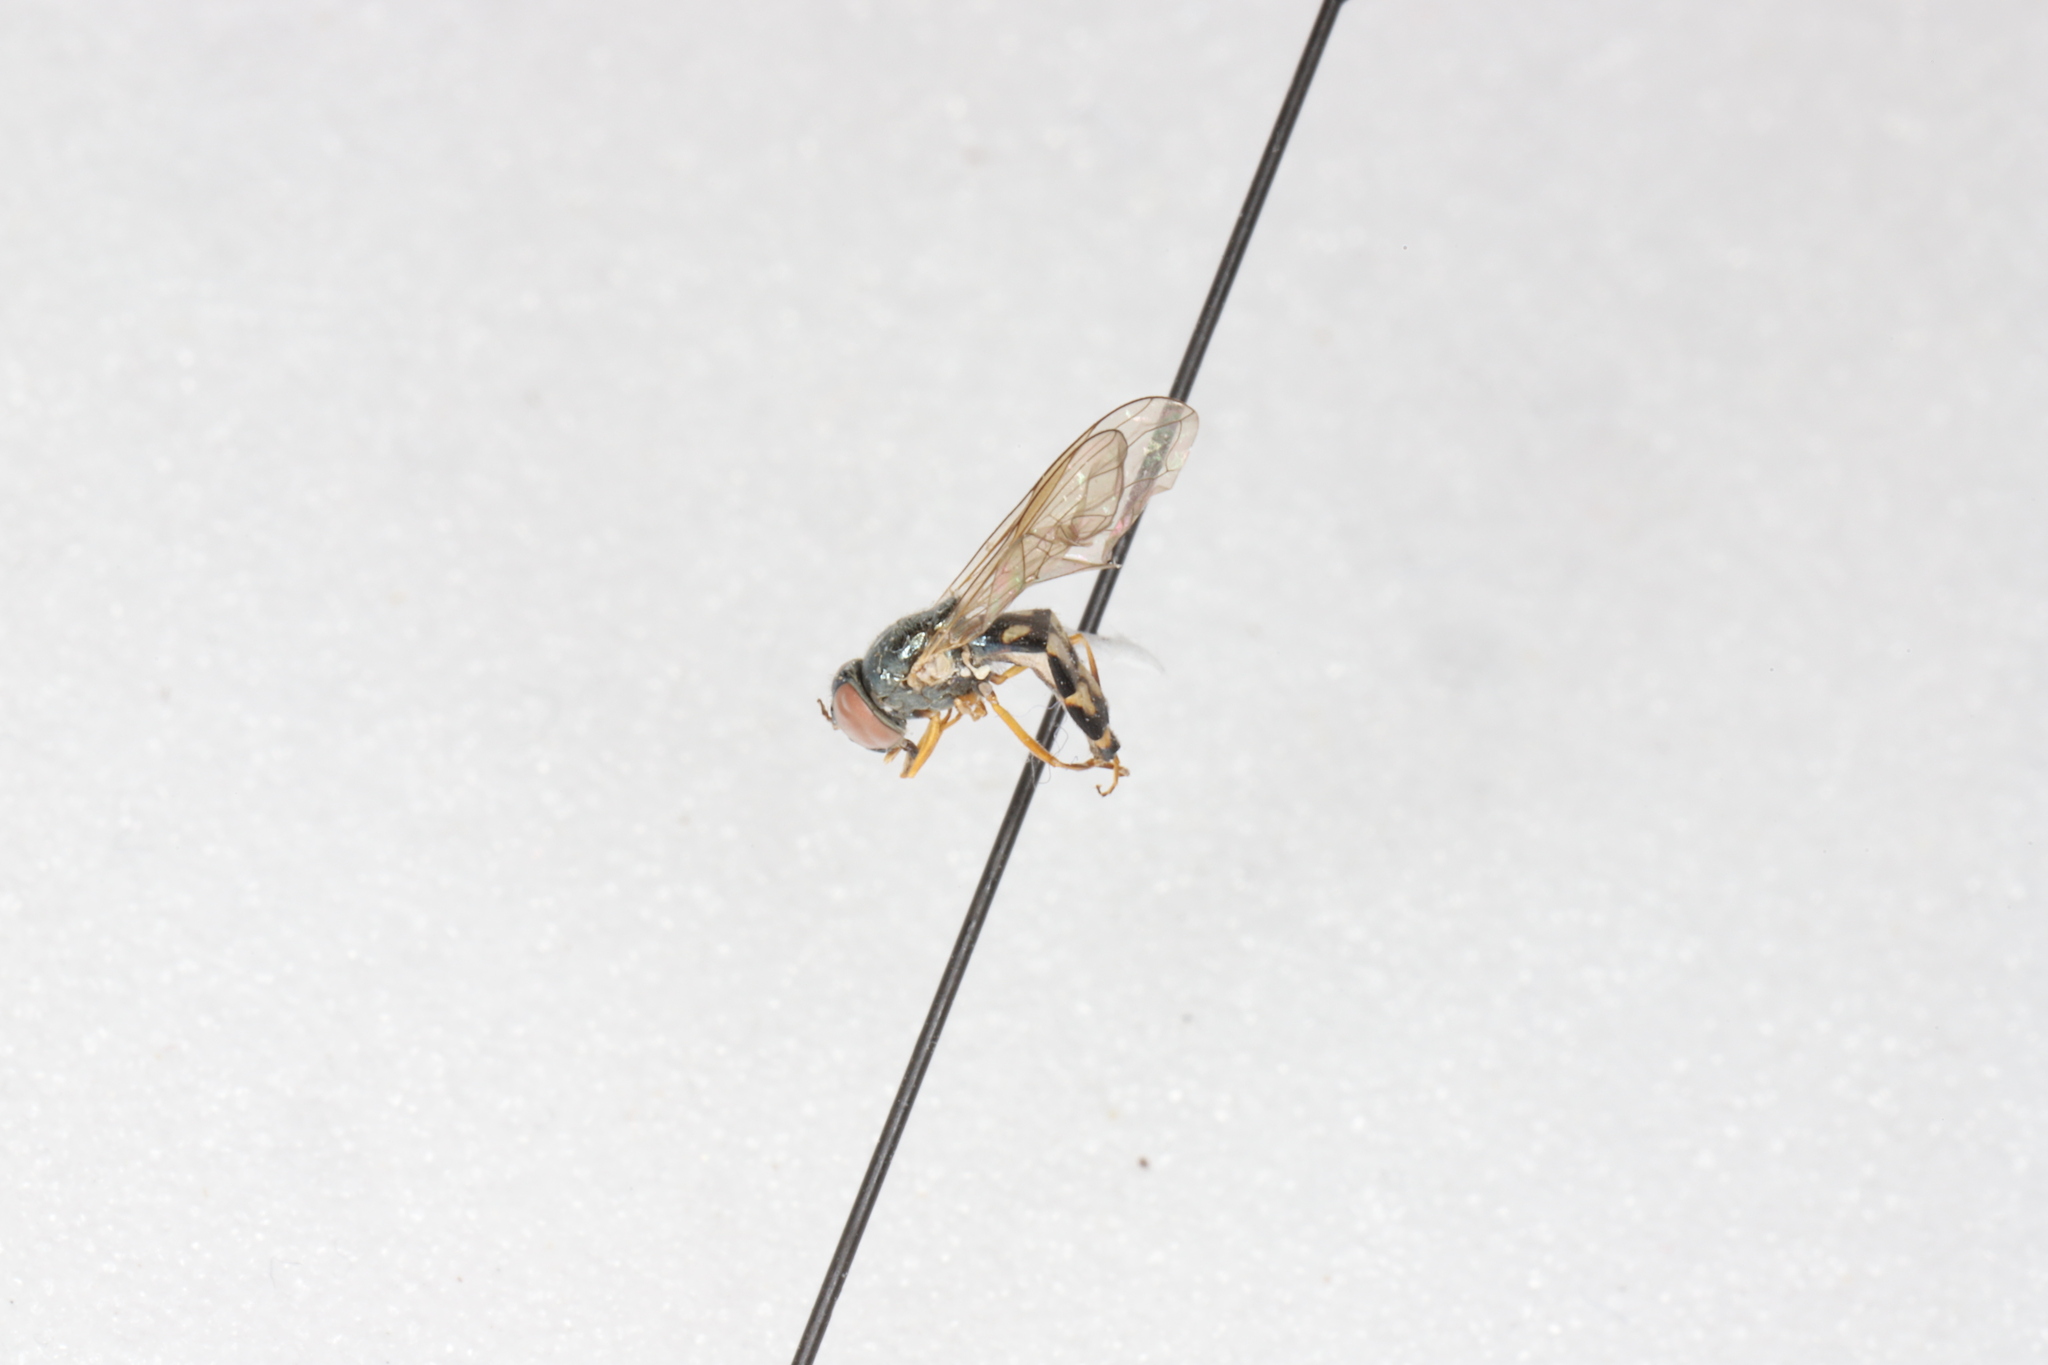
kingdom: Animalia
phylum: Arthropoda
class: Insecta
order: Diptera
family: Syrphidae
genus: Melanostoma
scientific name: Melanostoma mellina
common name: Hover fly
